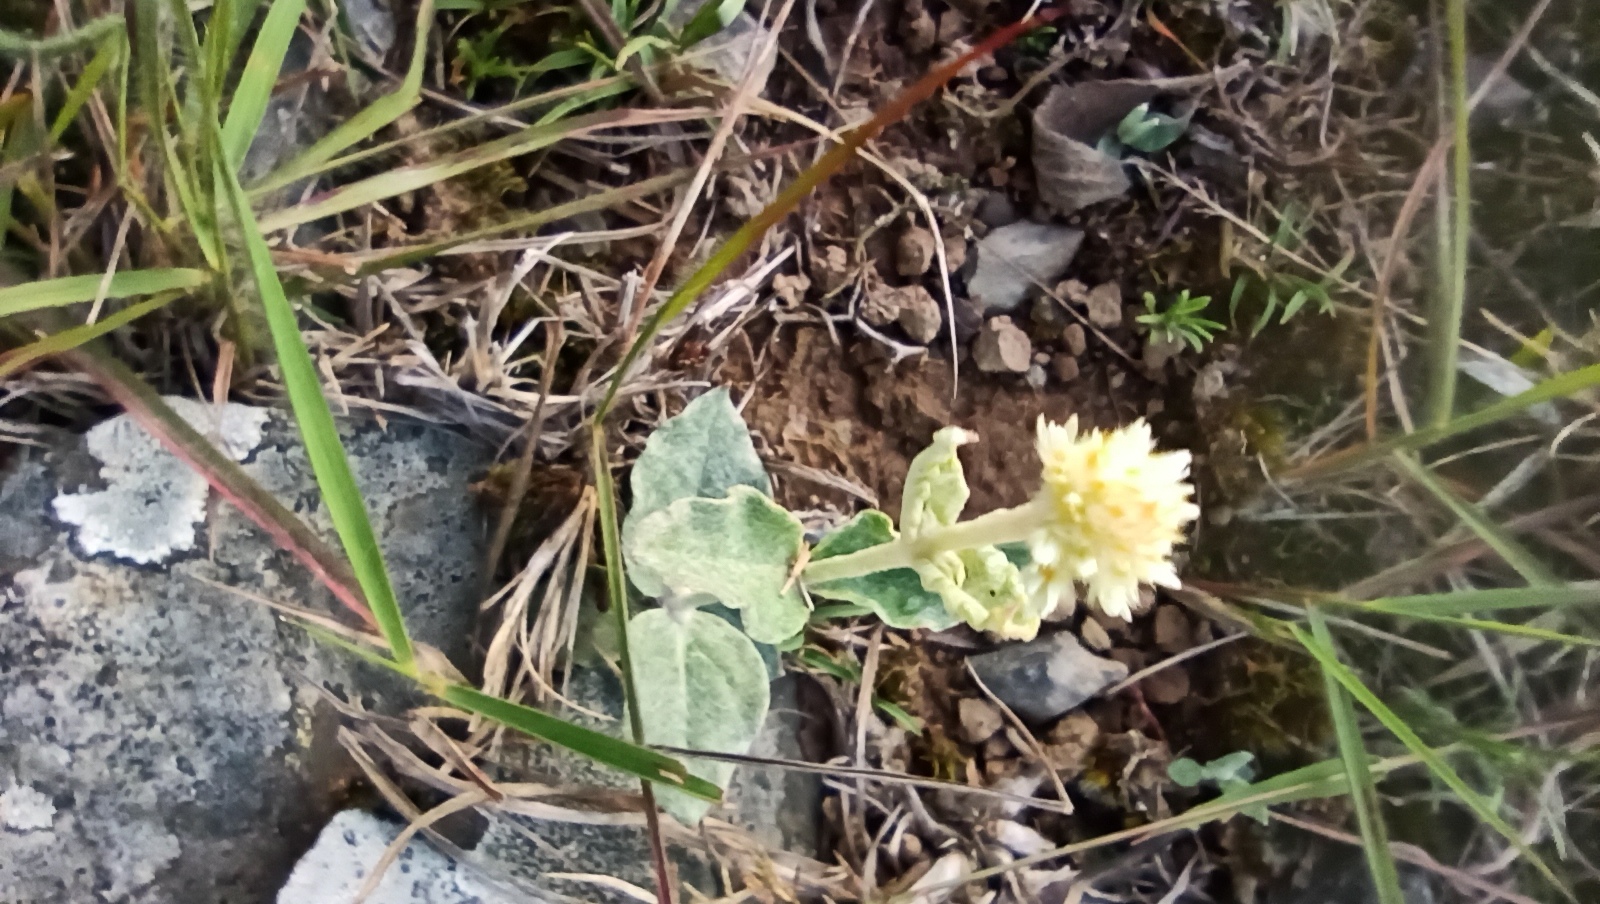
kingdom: Plantae
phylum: Tracheophyta
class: Magnoliopsida
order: Caryophyllales
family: Amaranthaceae
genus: Pfaffia
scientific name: Pfaffia gnaphalioides
